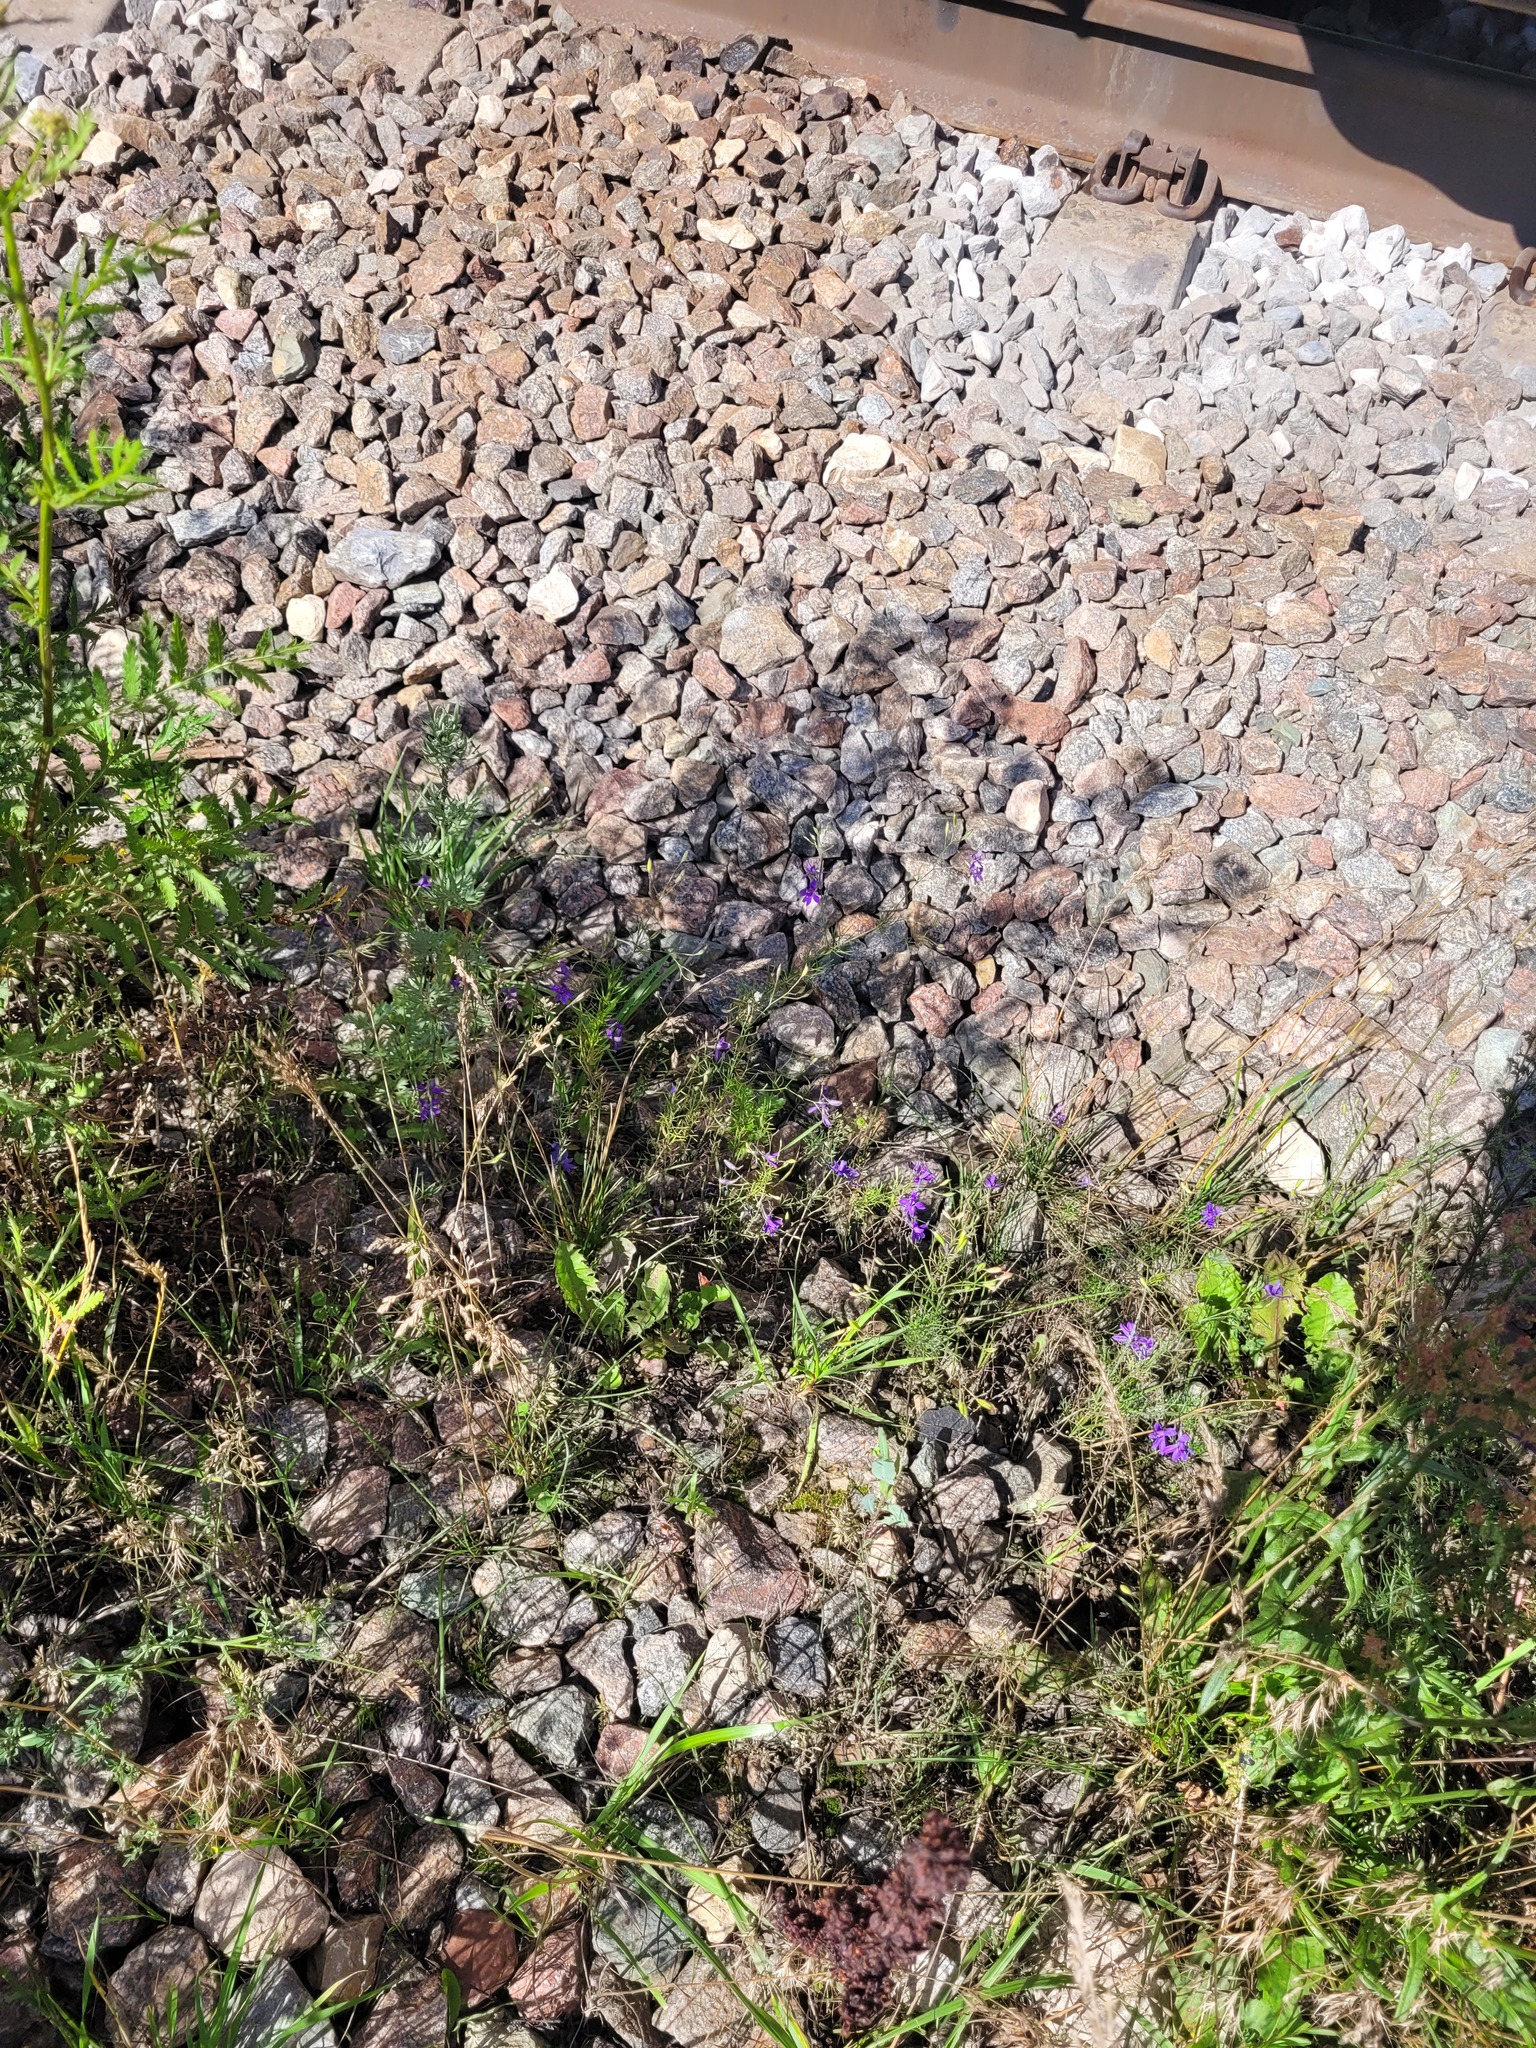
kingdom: Plantae
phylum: Tracheophyta
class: Magnoliopsida
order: Ranunculales
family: Ranunculaceae
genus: Delphinium
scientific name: Delphinium consolida
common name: Branching larkspur
